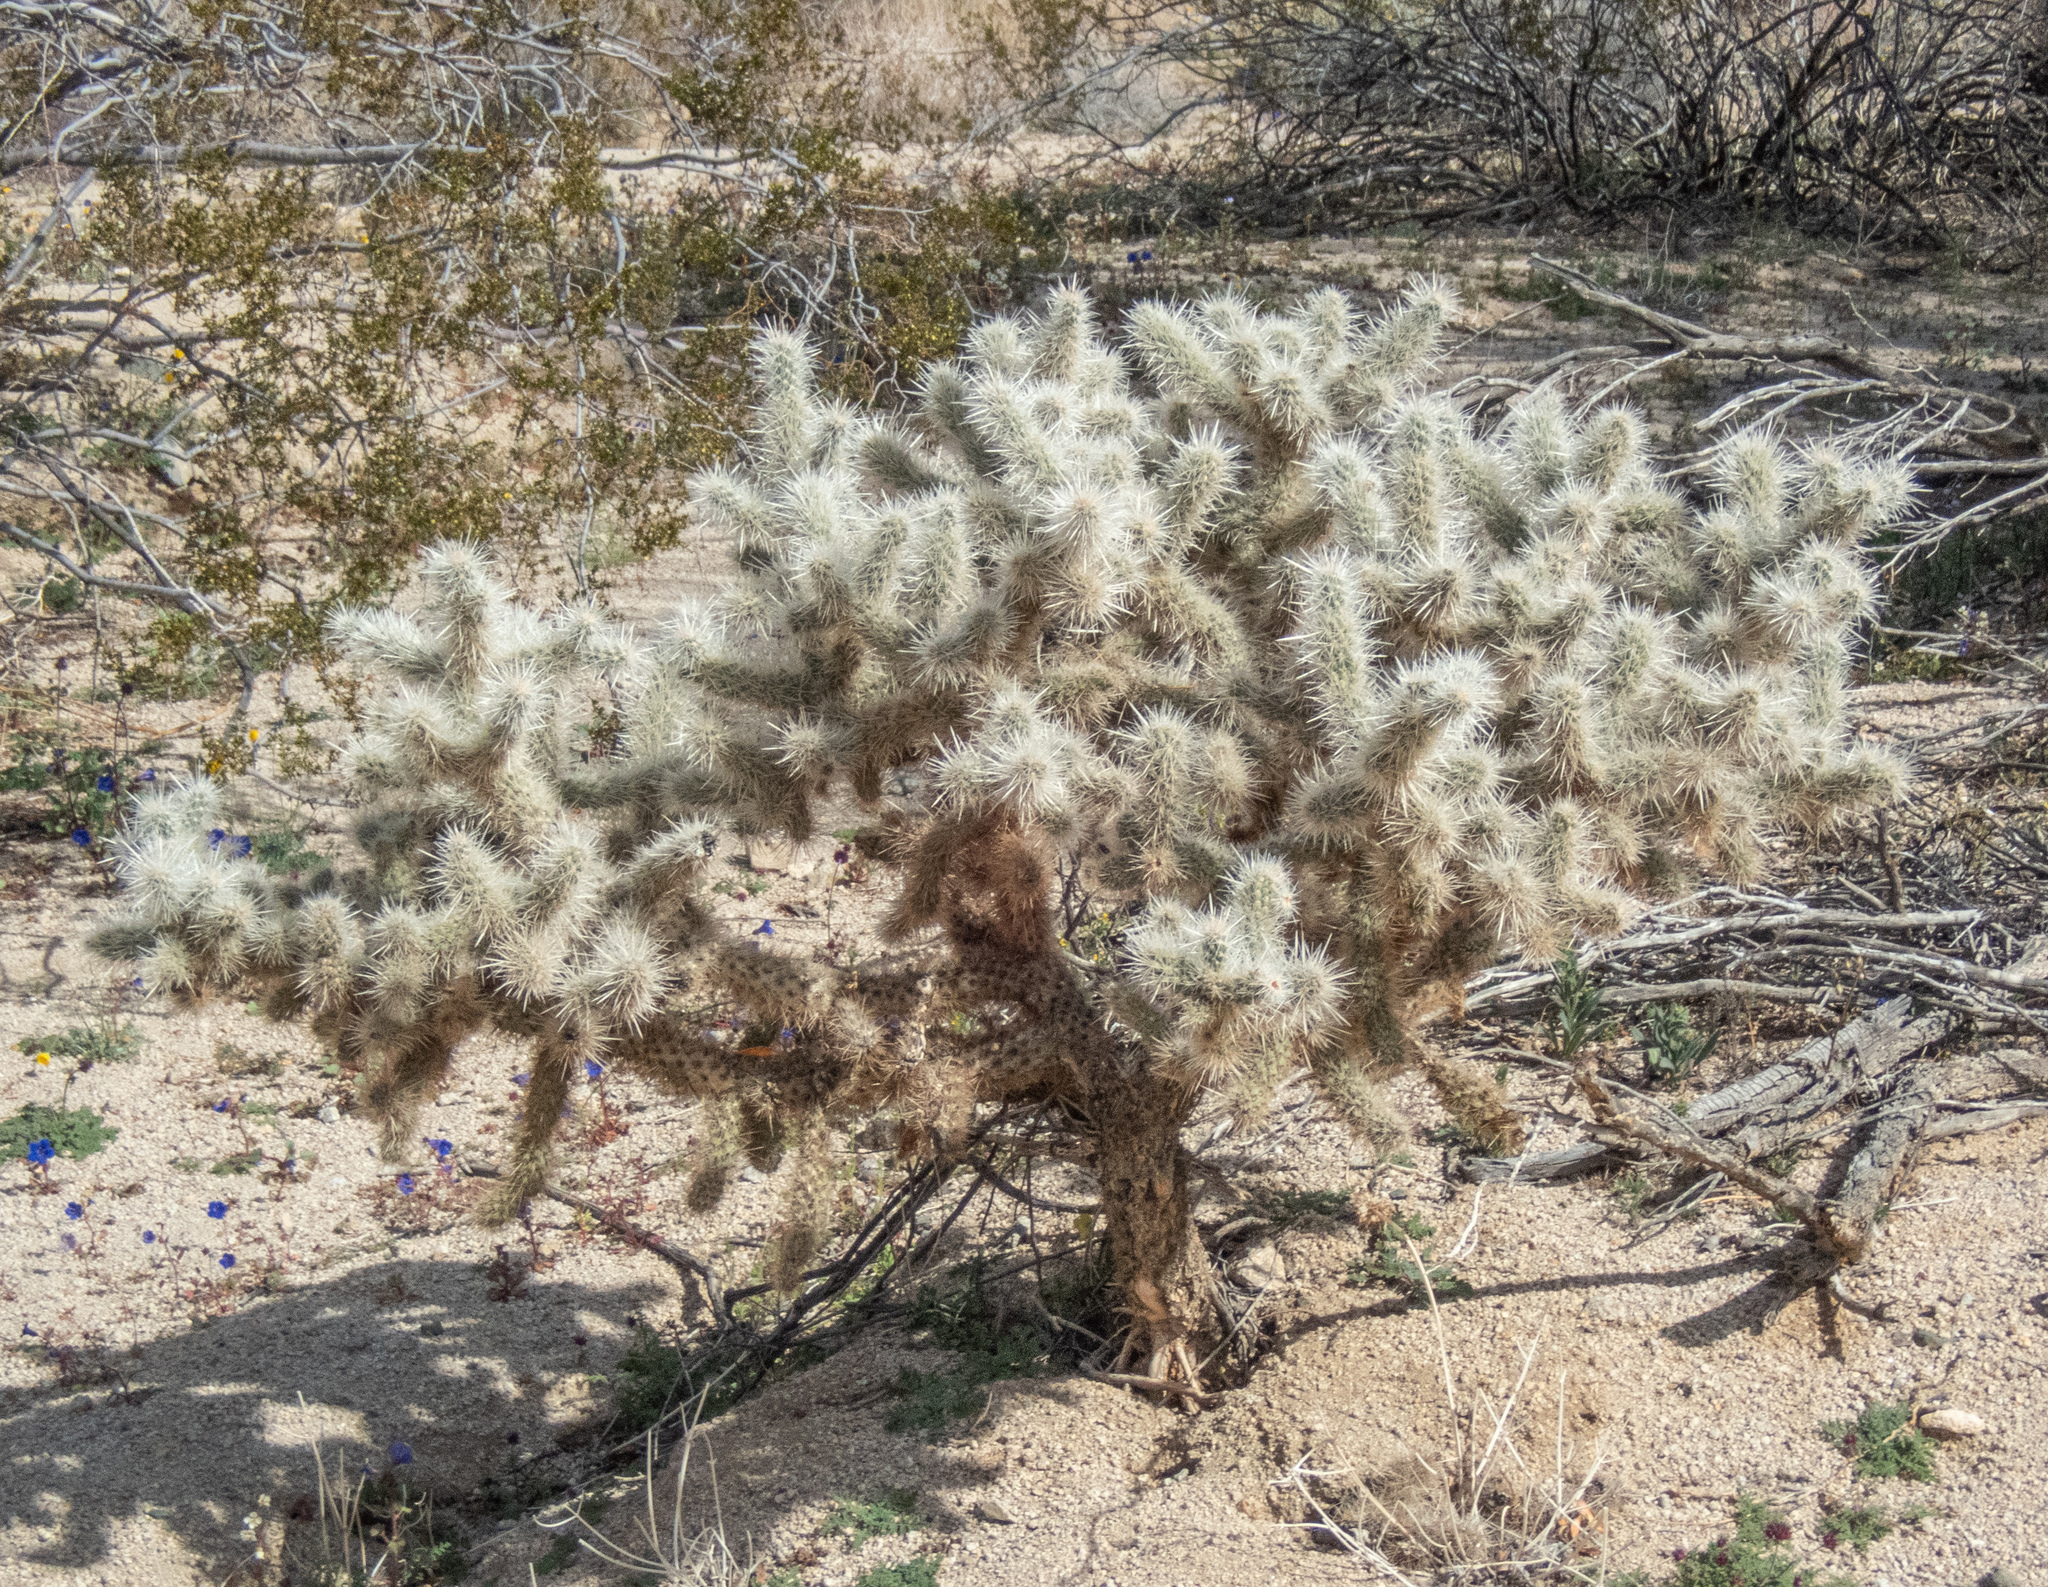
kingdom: Plantae
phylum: Tracheophyta
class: Magnoliopsida
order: Caryophyllales
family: Cactaceae
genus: Cylindropuntia
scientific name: Cylindropuntia echinocarpa
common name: Ground cholla
